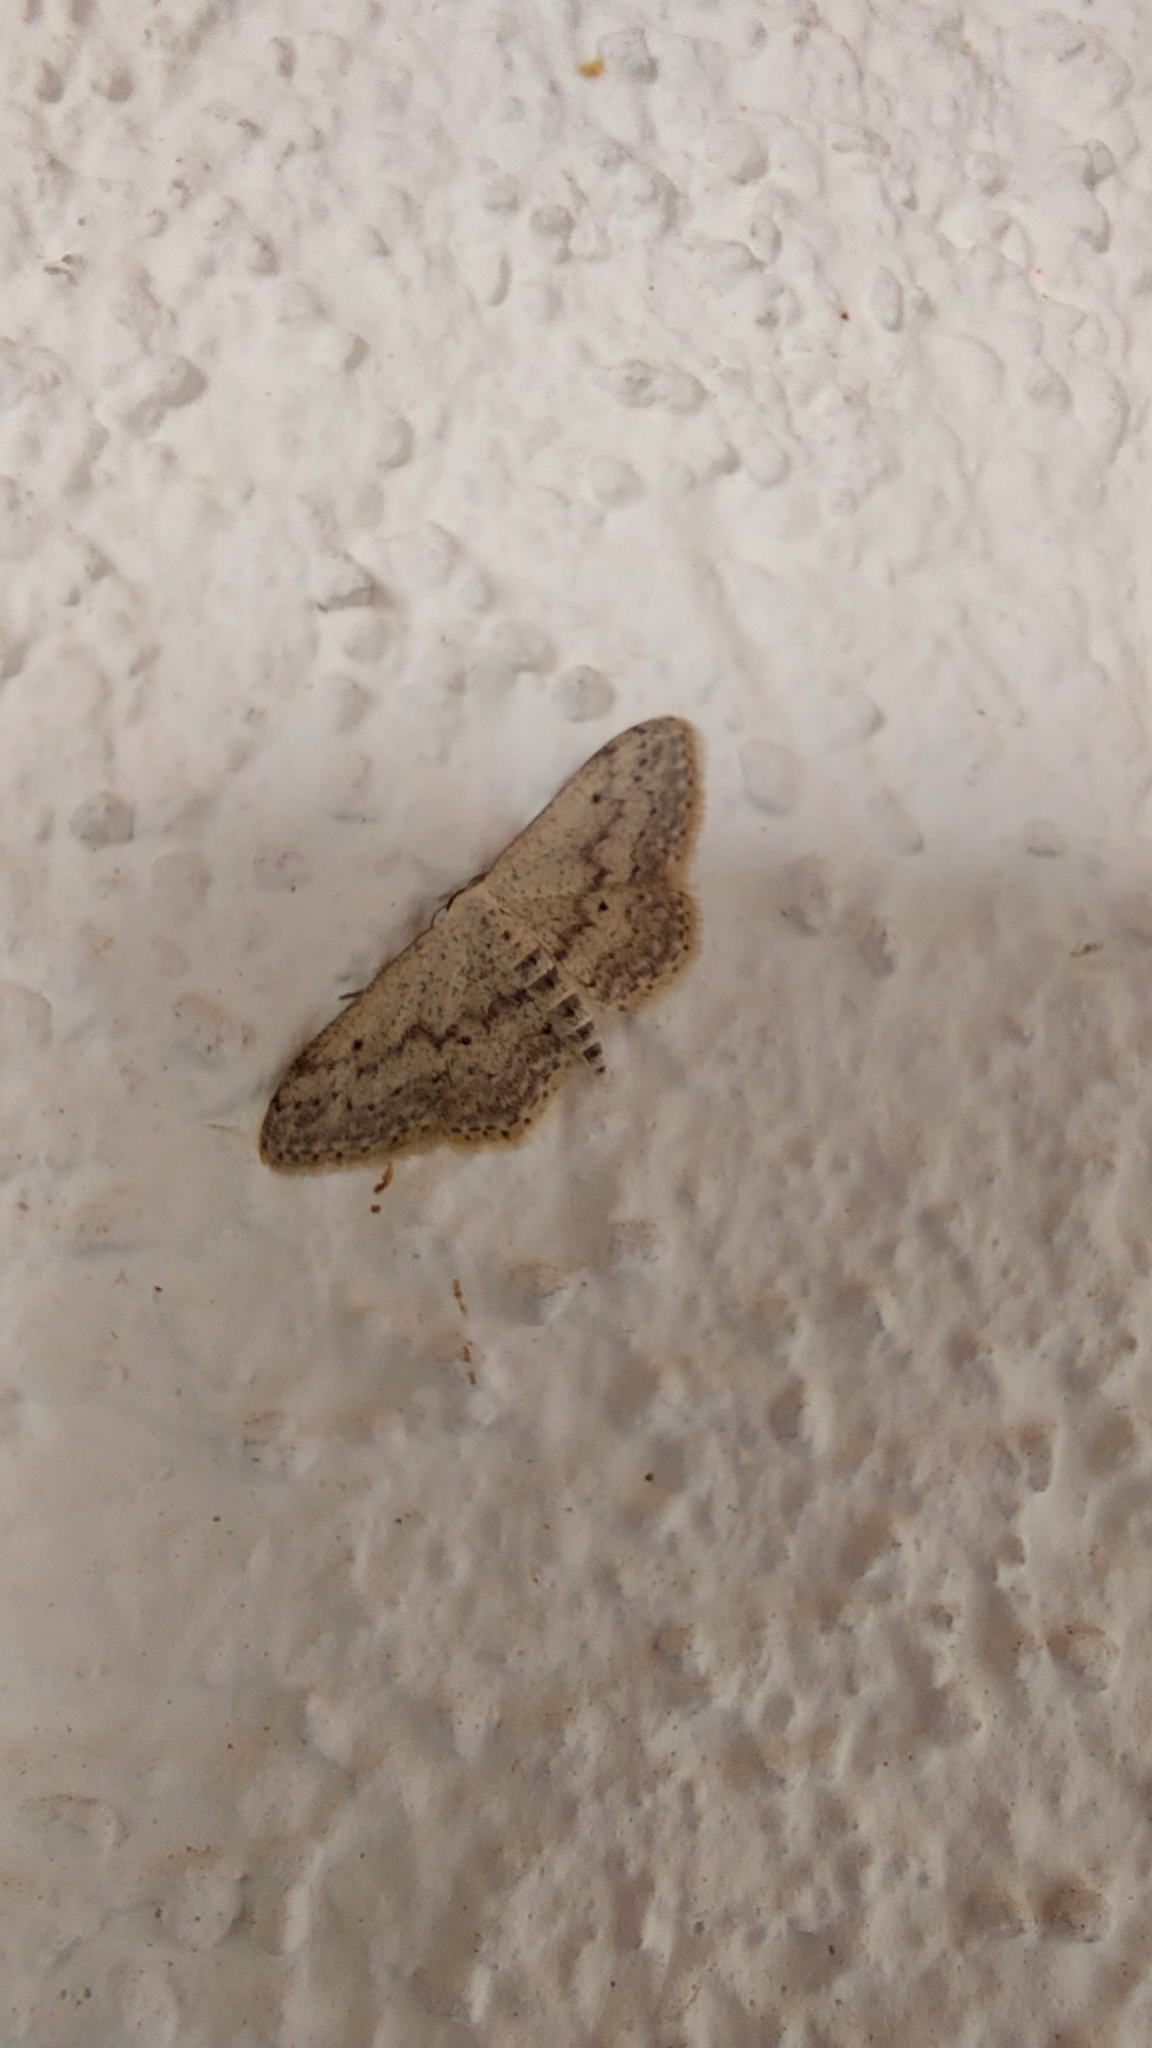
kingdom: Animalia
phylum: Arthropoda
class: Insecta
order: Lepidoptera
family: Geometridae
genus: Idaea
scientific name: Idaea seriata
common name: Small dusty wave
